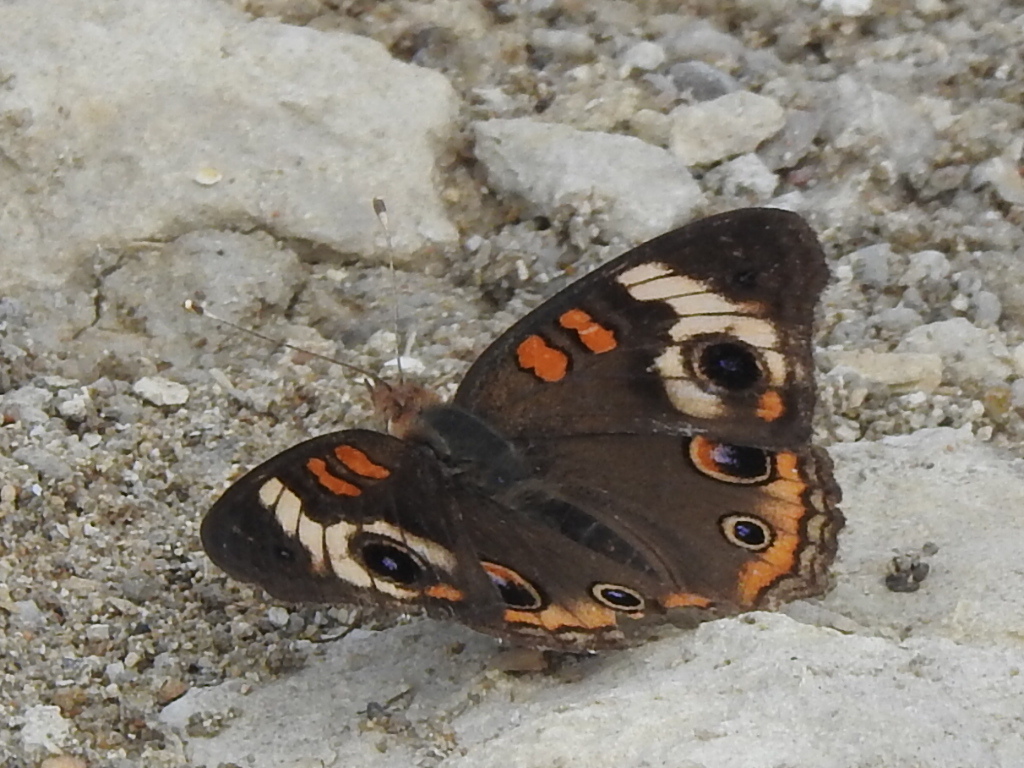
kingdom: Animalia
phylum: Arthropoda
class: Insecta
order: Lepidoptera
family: Nymphalidae
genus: Junonia
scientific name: Junonia coenia
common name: Common buckeye
